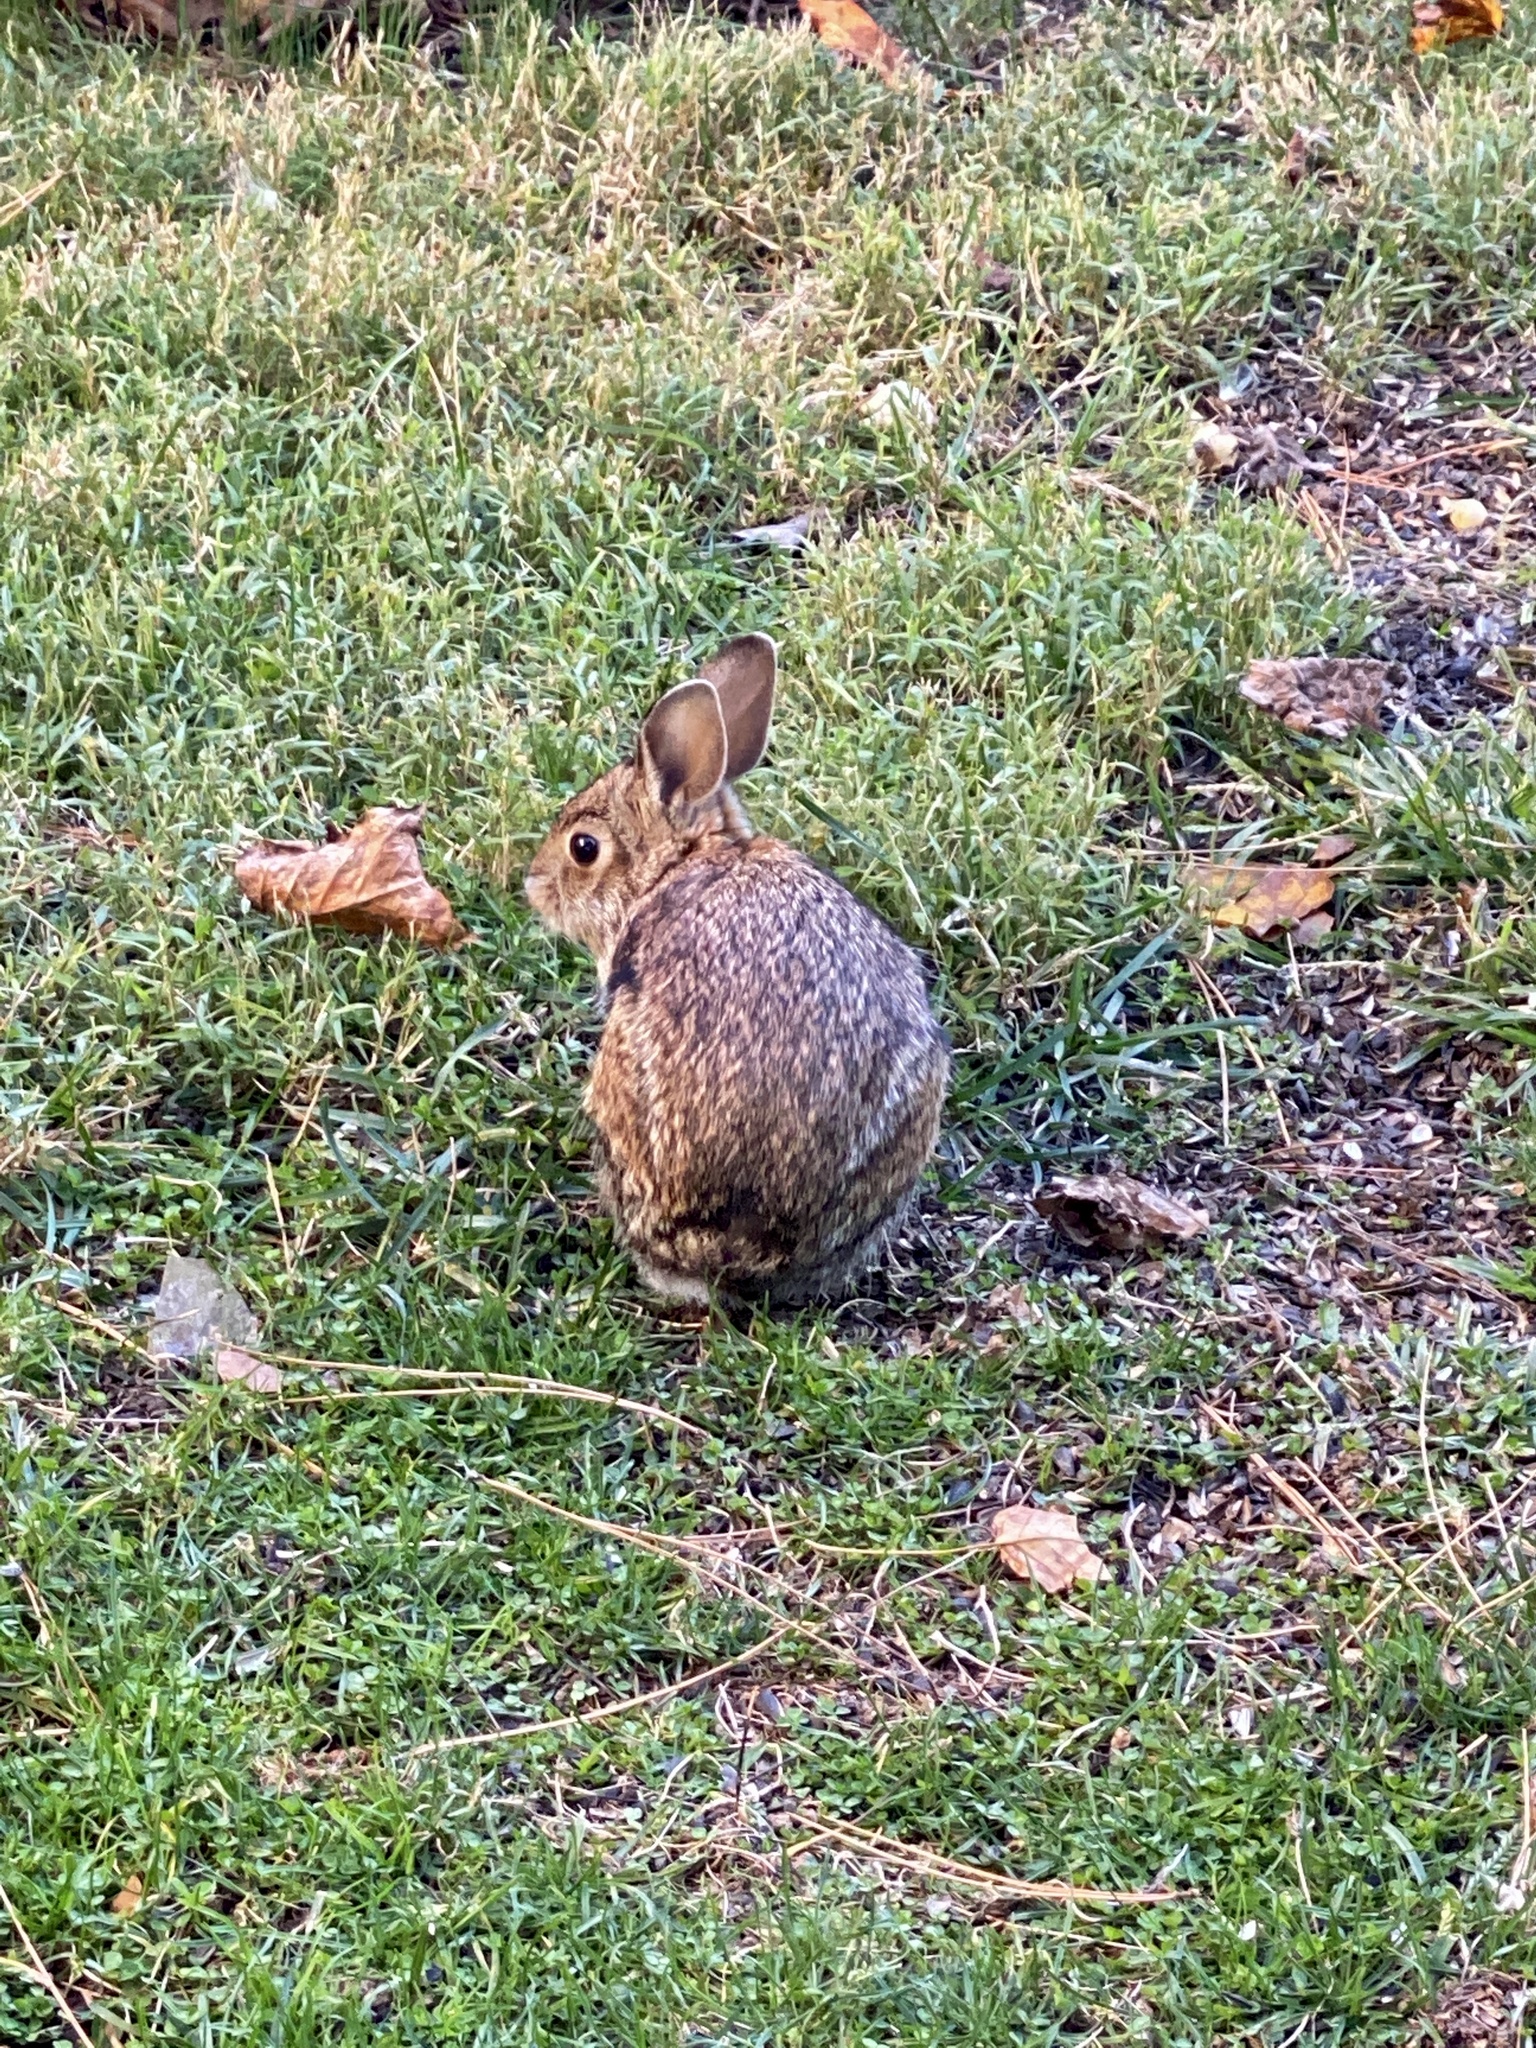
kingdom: Animalia
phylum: Chordata
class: Mammalia
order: Lagomorpha
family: Leporidae
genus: Sylvilagus
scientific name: Sylvilagus floridanus
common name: Eastern cottontail
